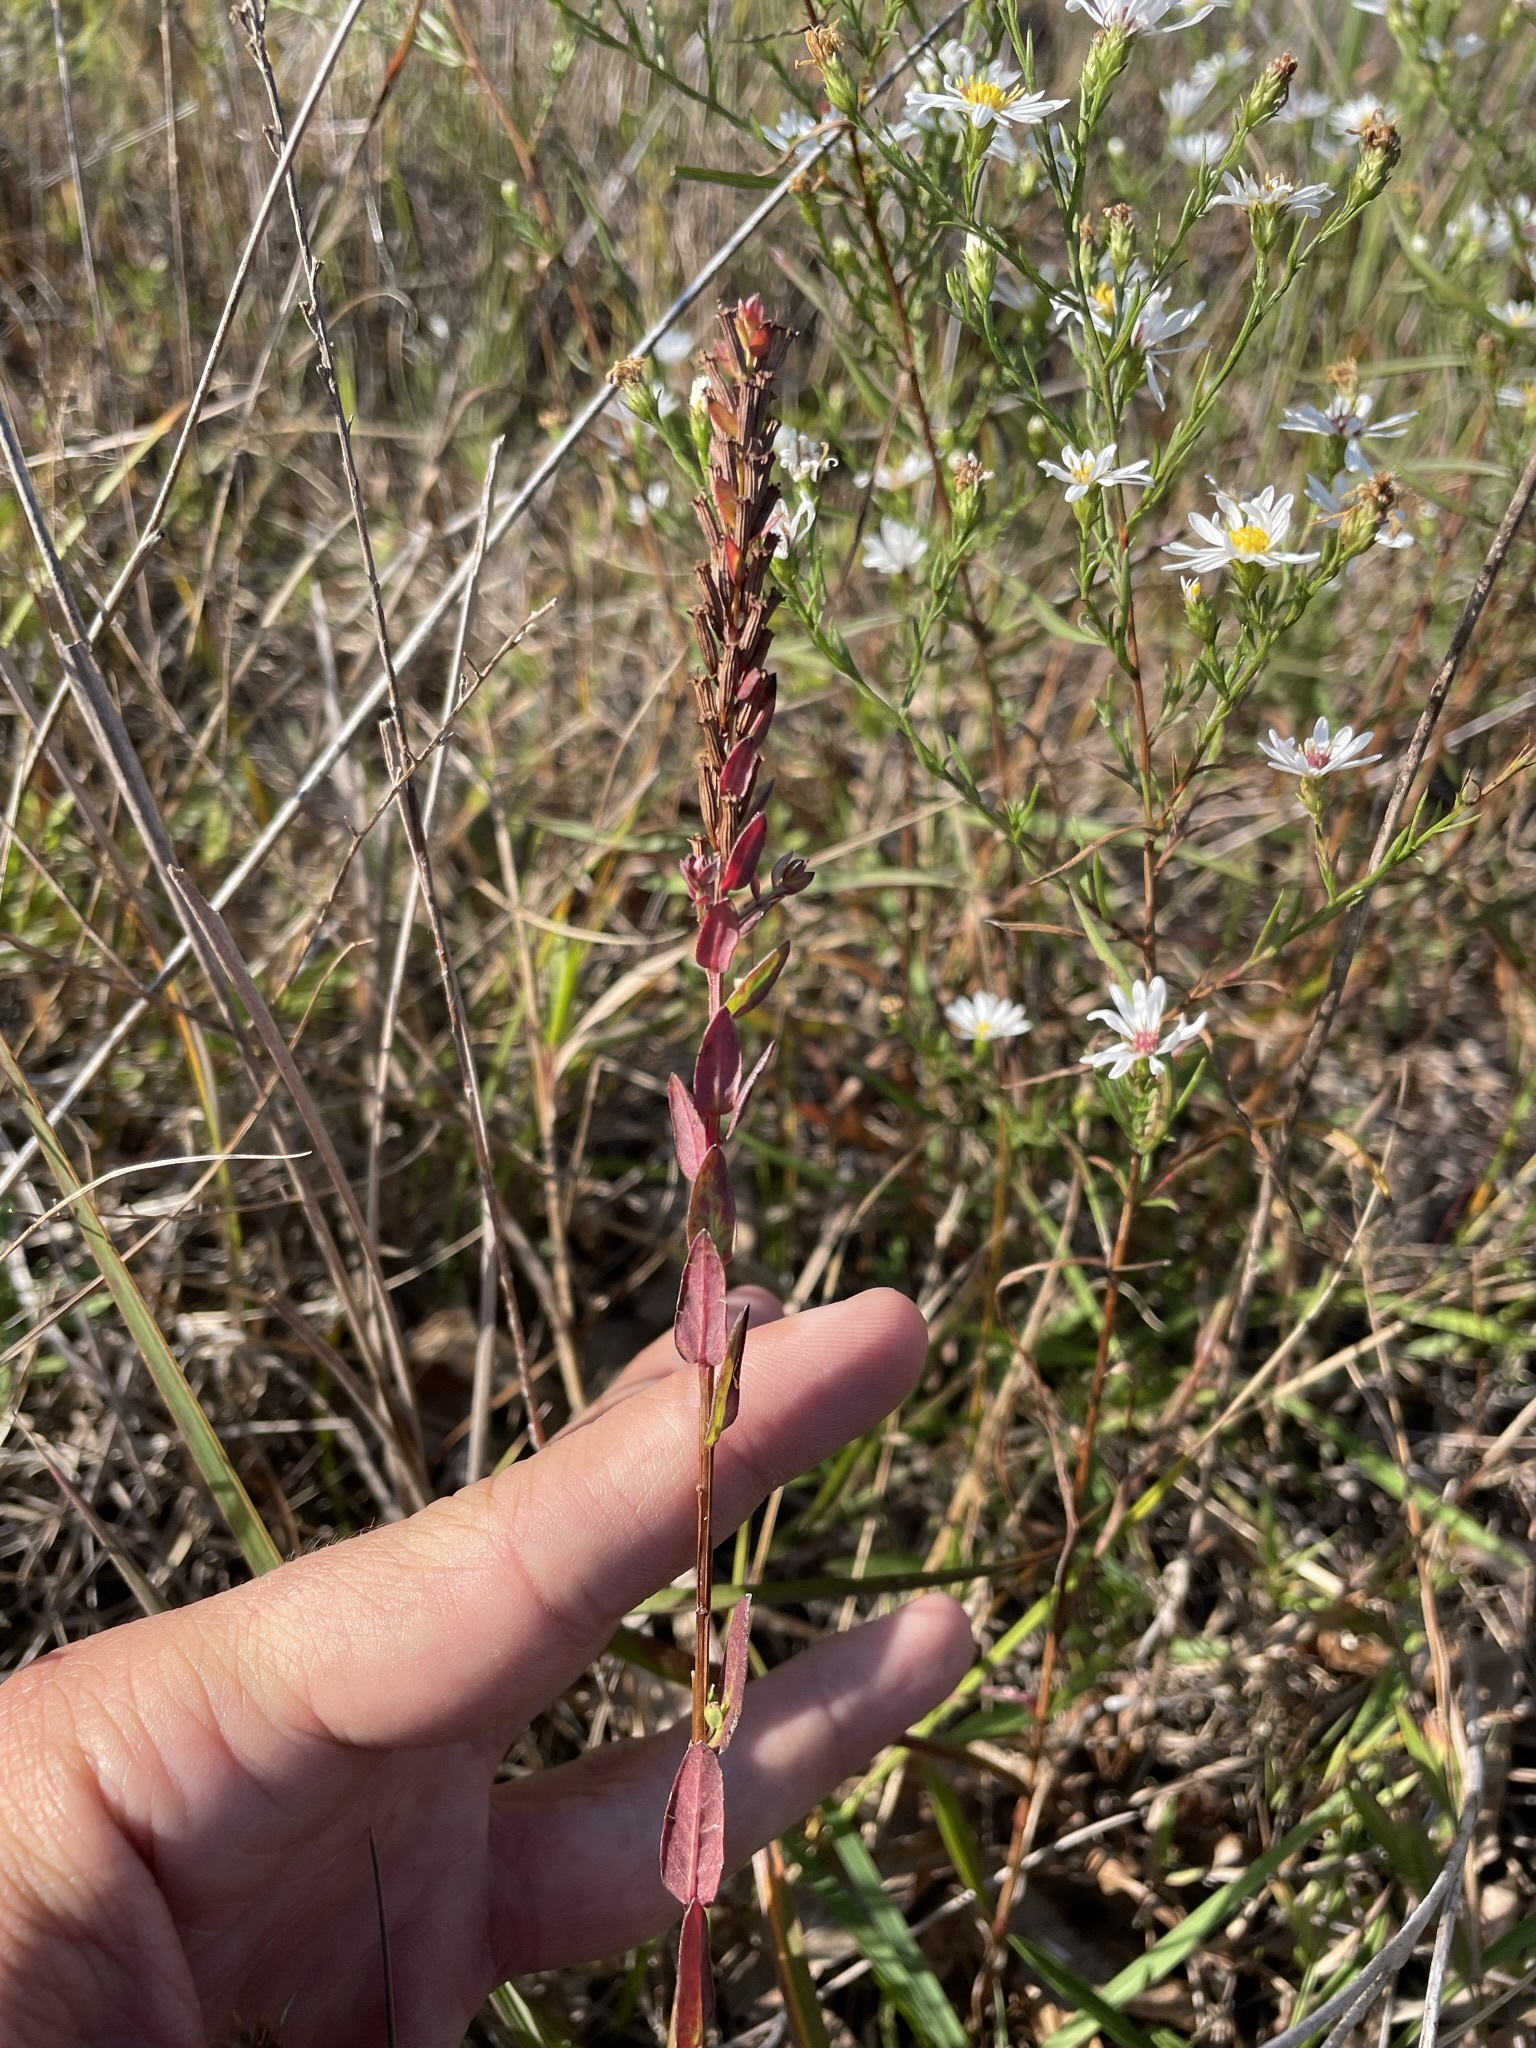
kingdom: Plantae
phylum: Tracheophyta
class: Magnoliopsida
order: Myrtales
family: Lythraceae
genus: Lythrum
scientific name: Lythrum alatum
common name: Winged loosestrife
